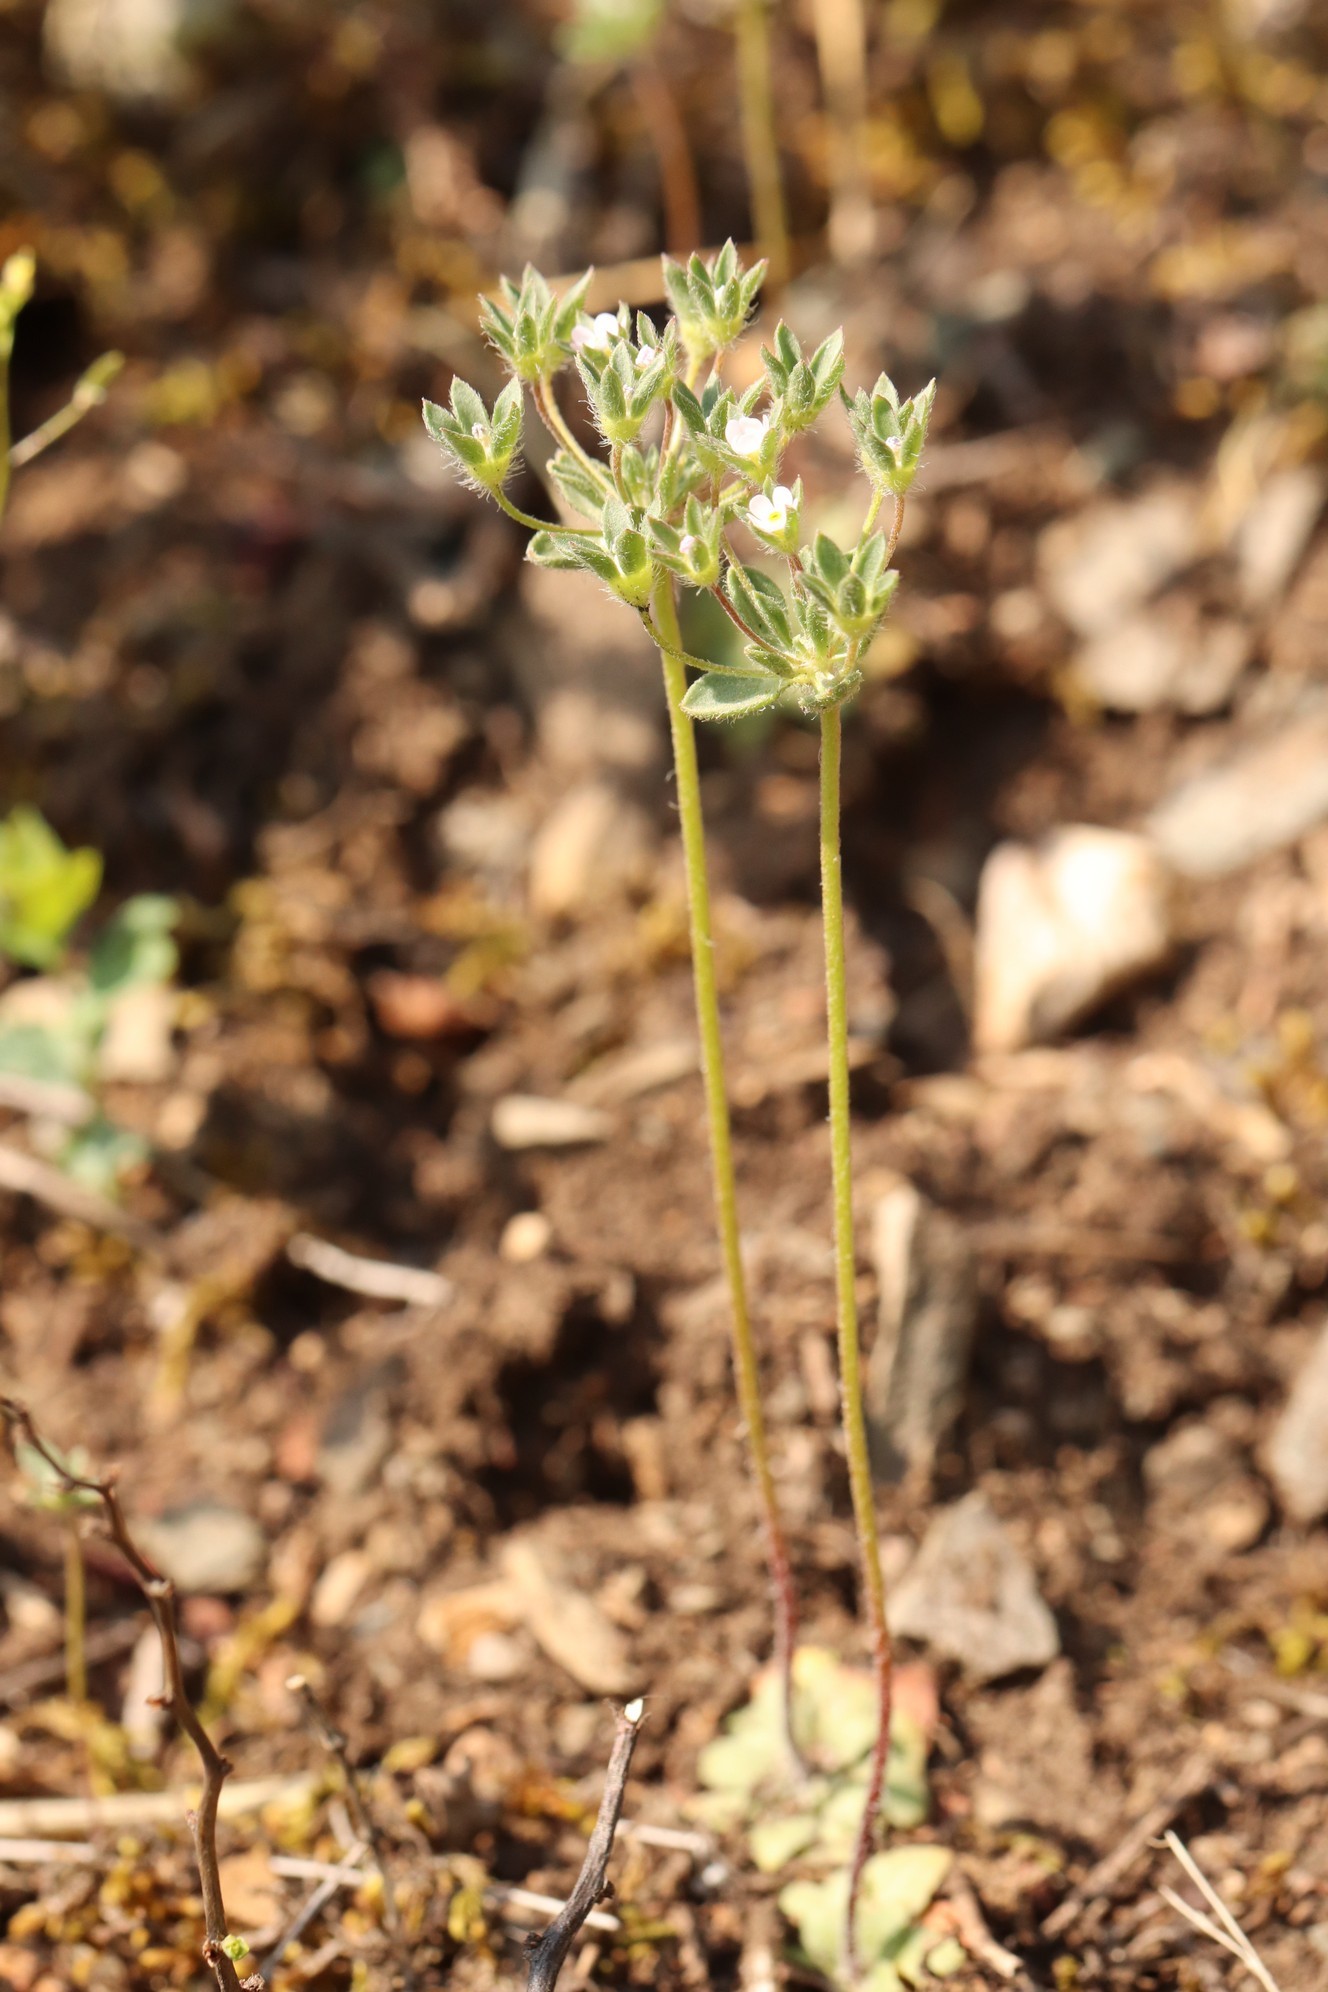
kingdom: Plantae
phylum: Tracheophyta
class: Magnoliopsida
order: Ericales
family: Primulaceae
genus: Androsace
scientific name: Androsace maxima
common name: Annual androsace
